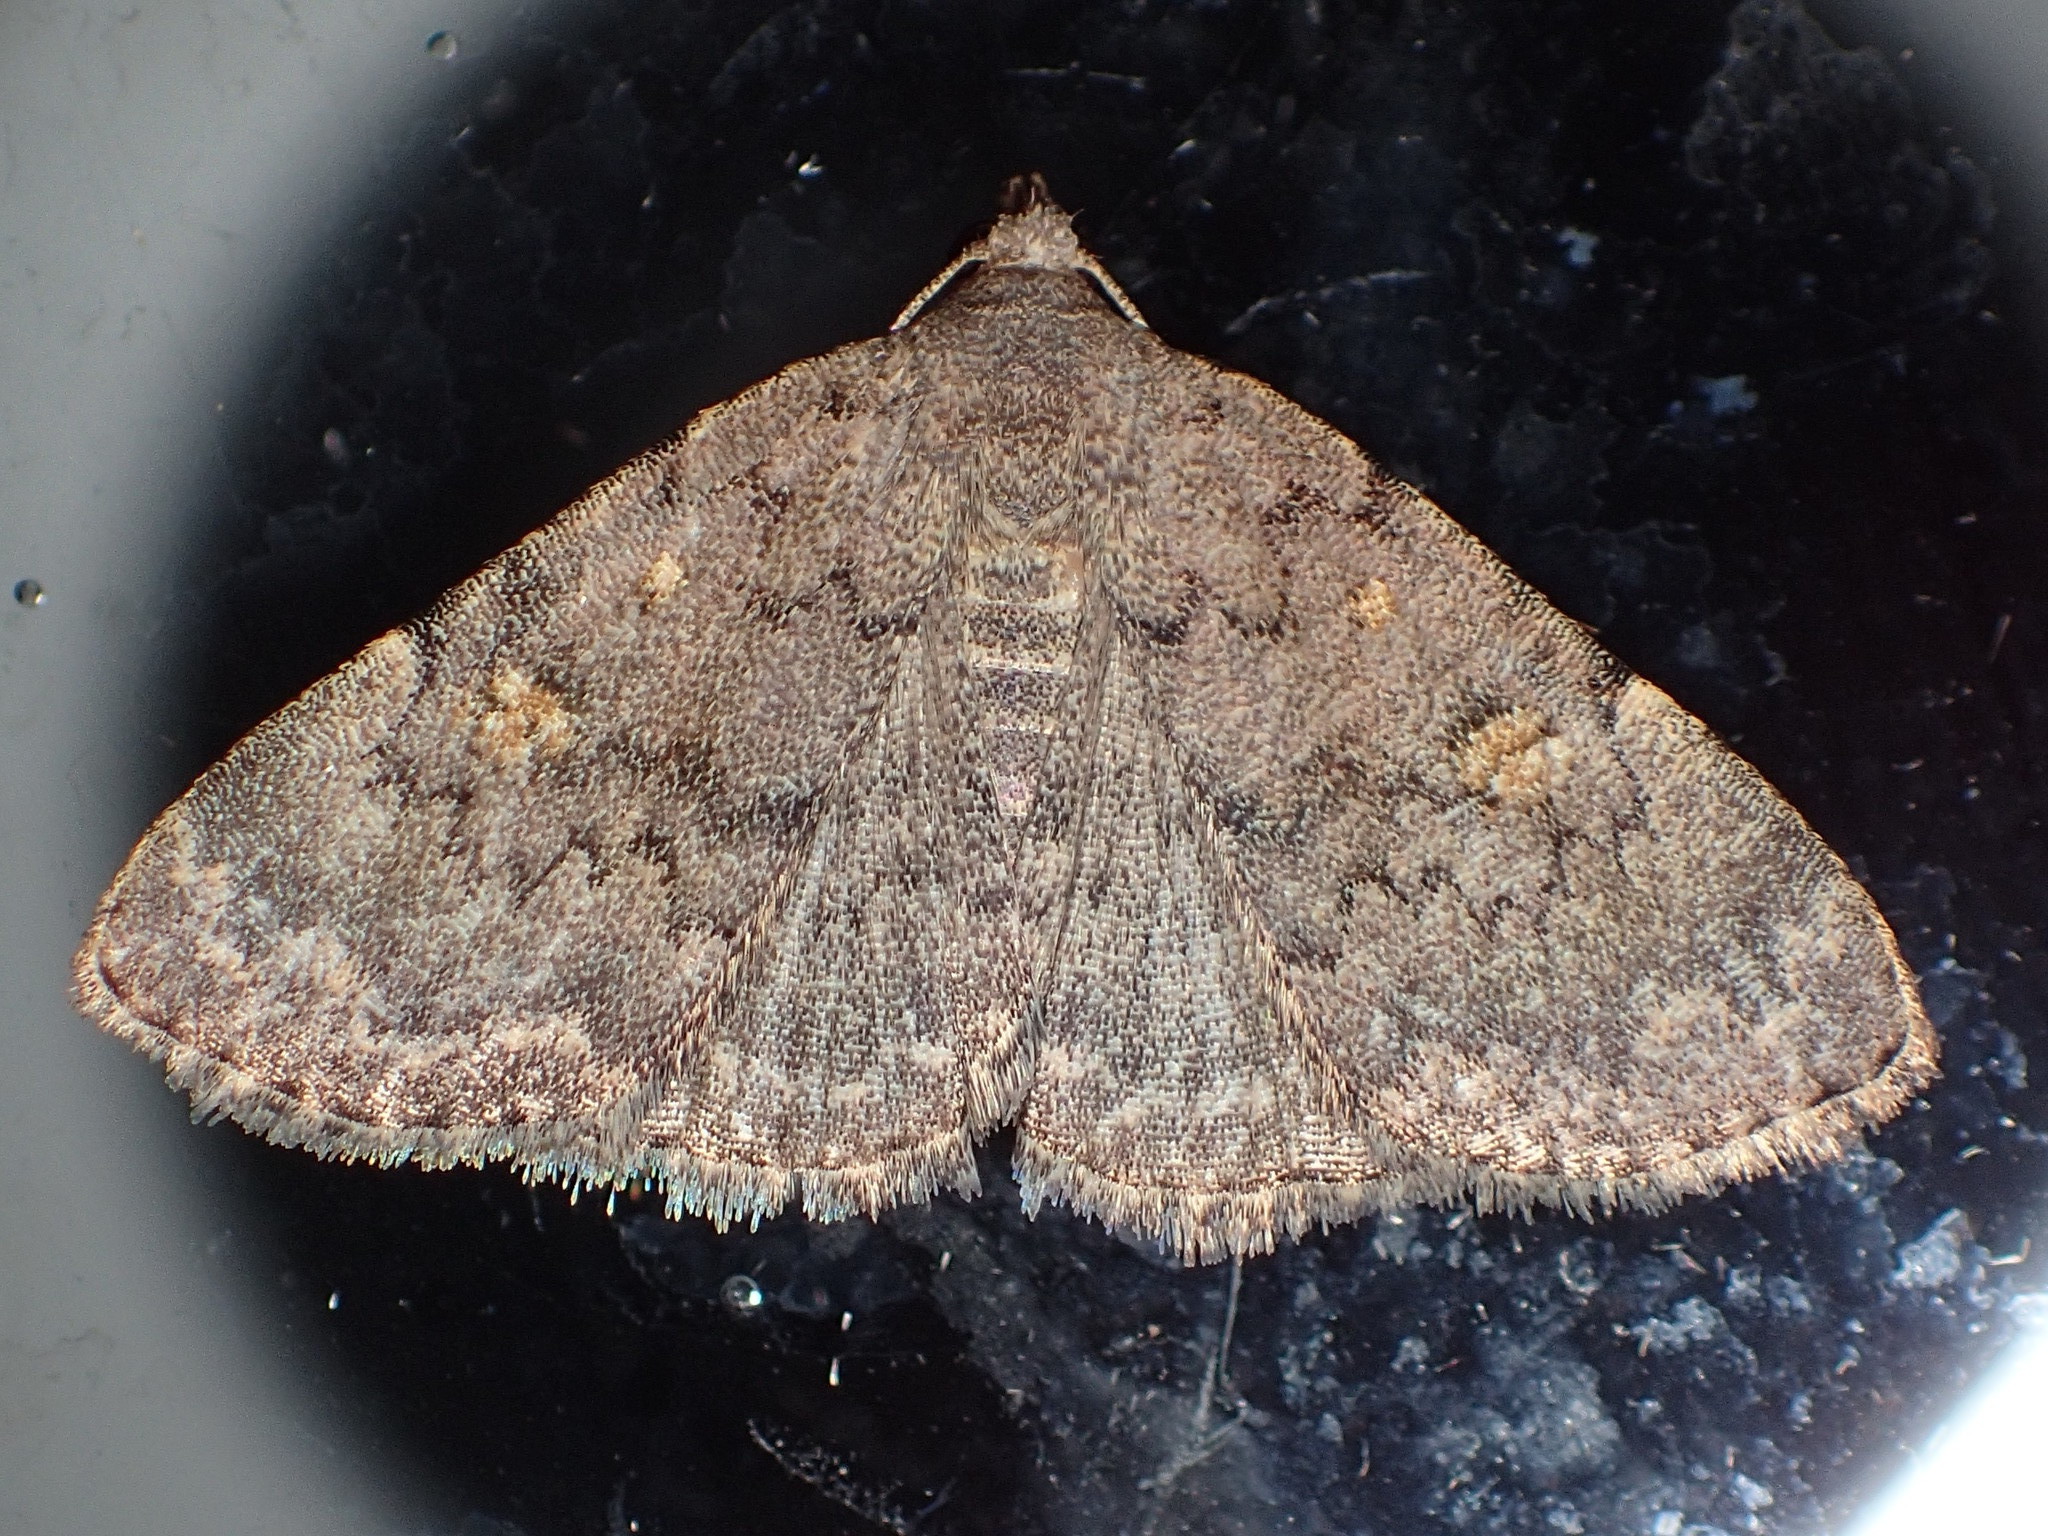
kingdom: Animalia
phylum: Arthropoda
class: Insecta
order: Lepidoptera
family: Erebidae
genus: Idia
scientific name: Idia aemula
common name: Common idia moth
